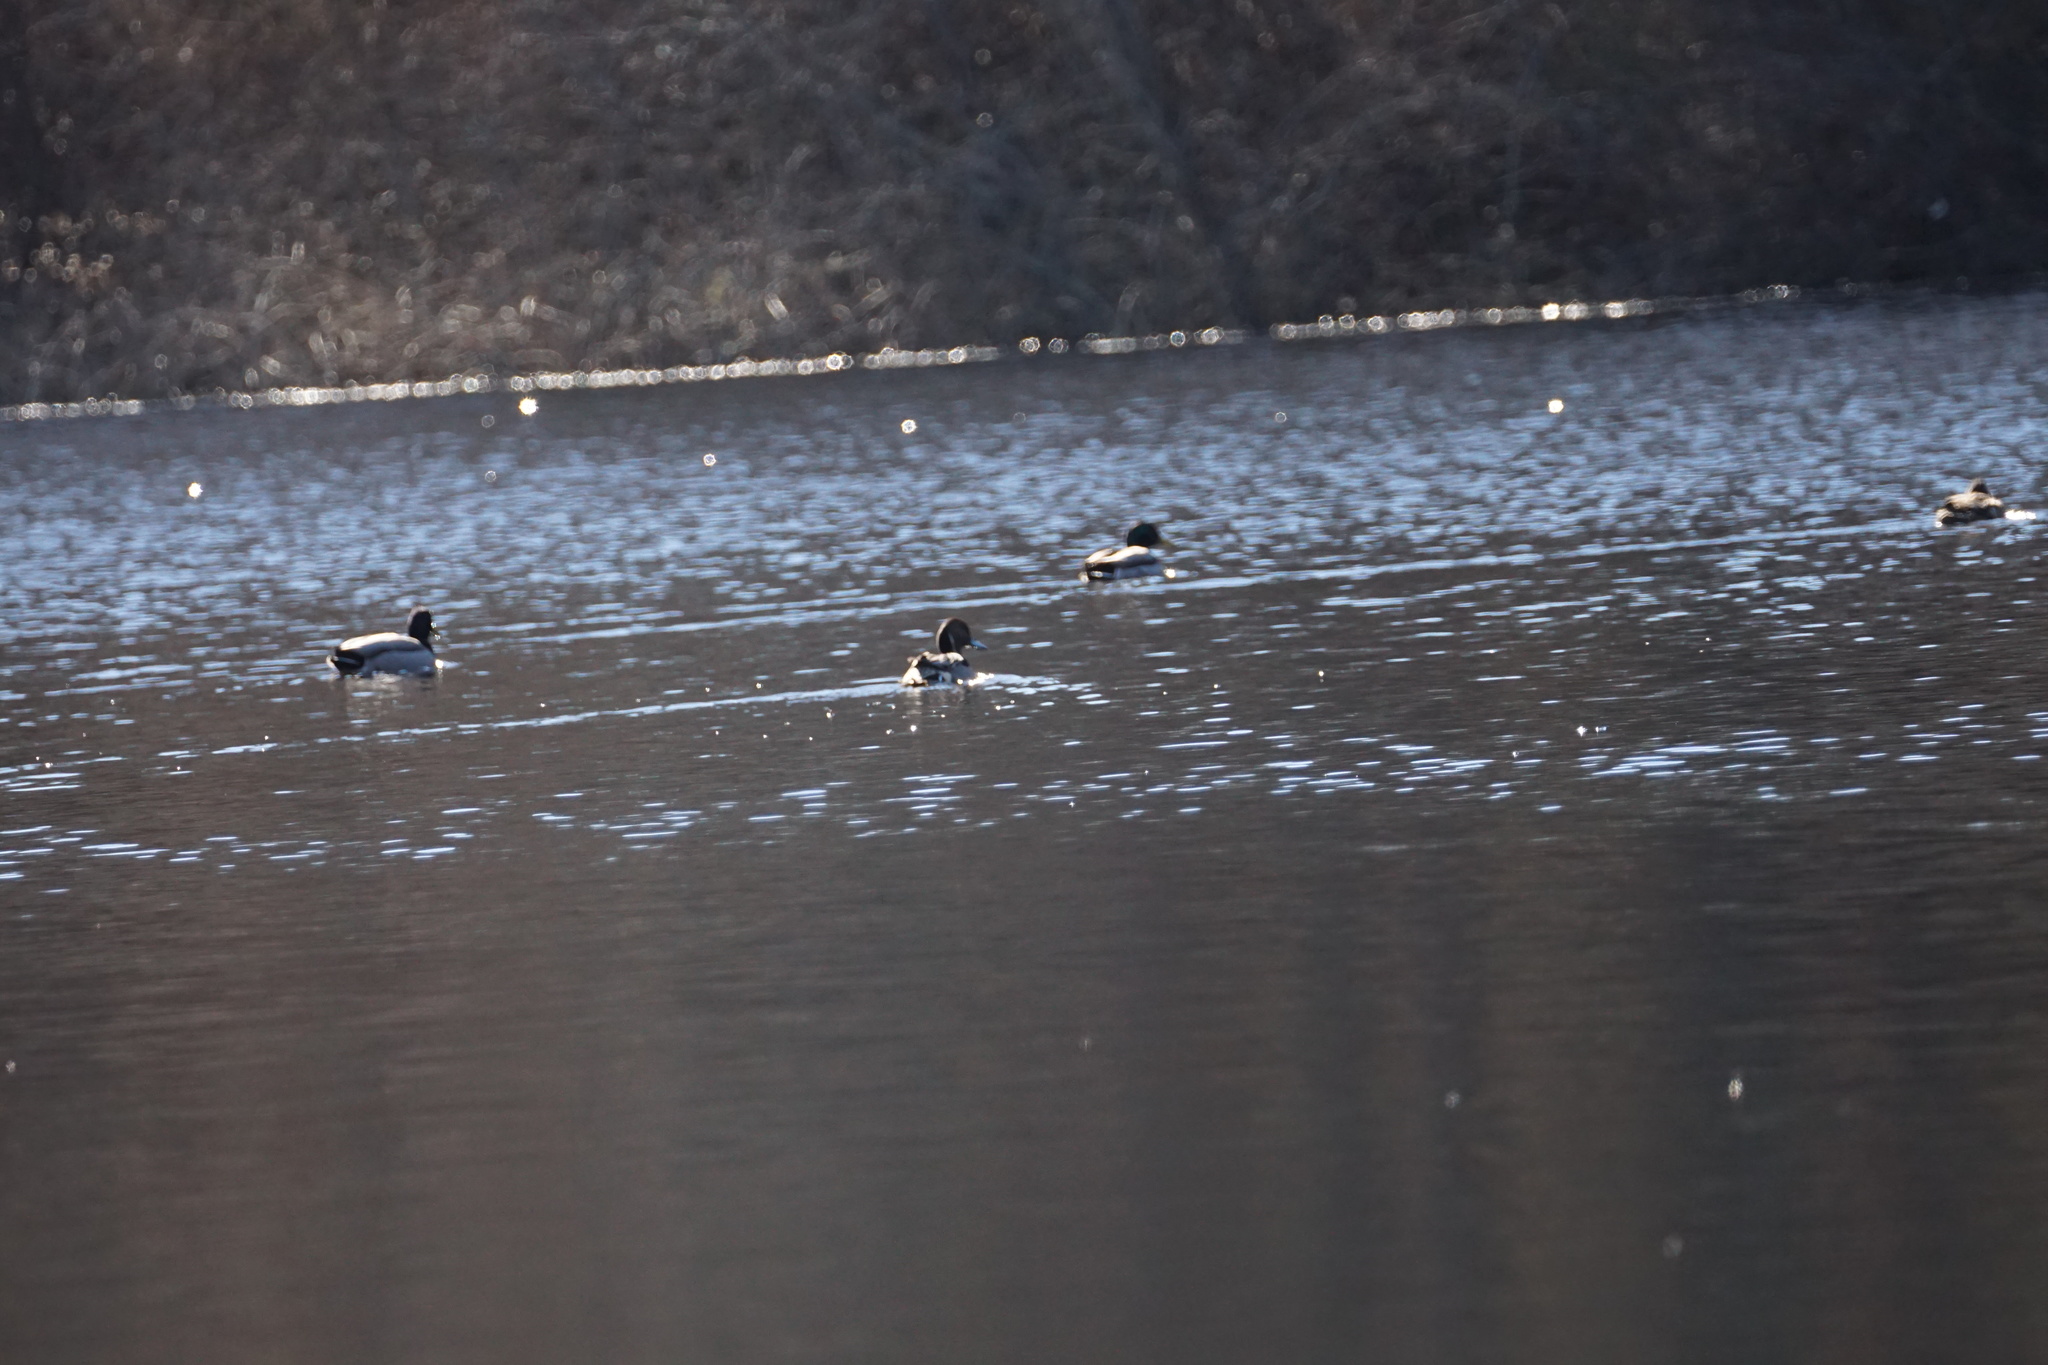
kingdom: Animalia
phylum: Chordata
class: Aves
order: Anseriformes
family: Anatidae
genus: Anas
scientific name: Anas acuta
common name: Northern pintail
